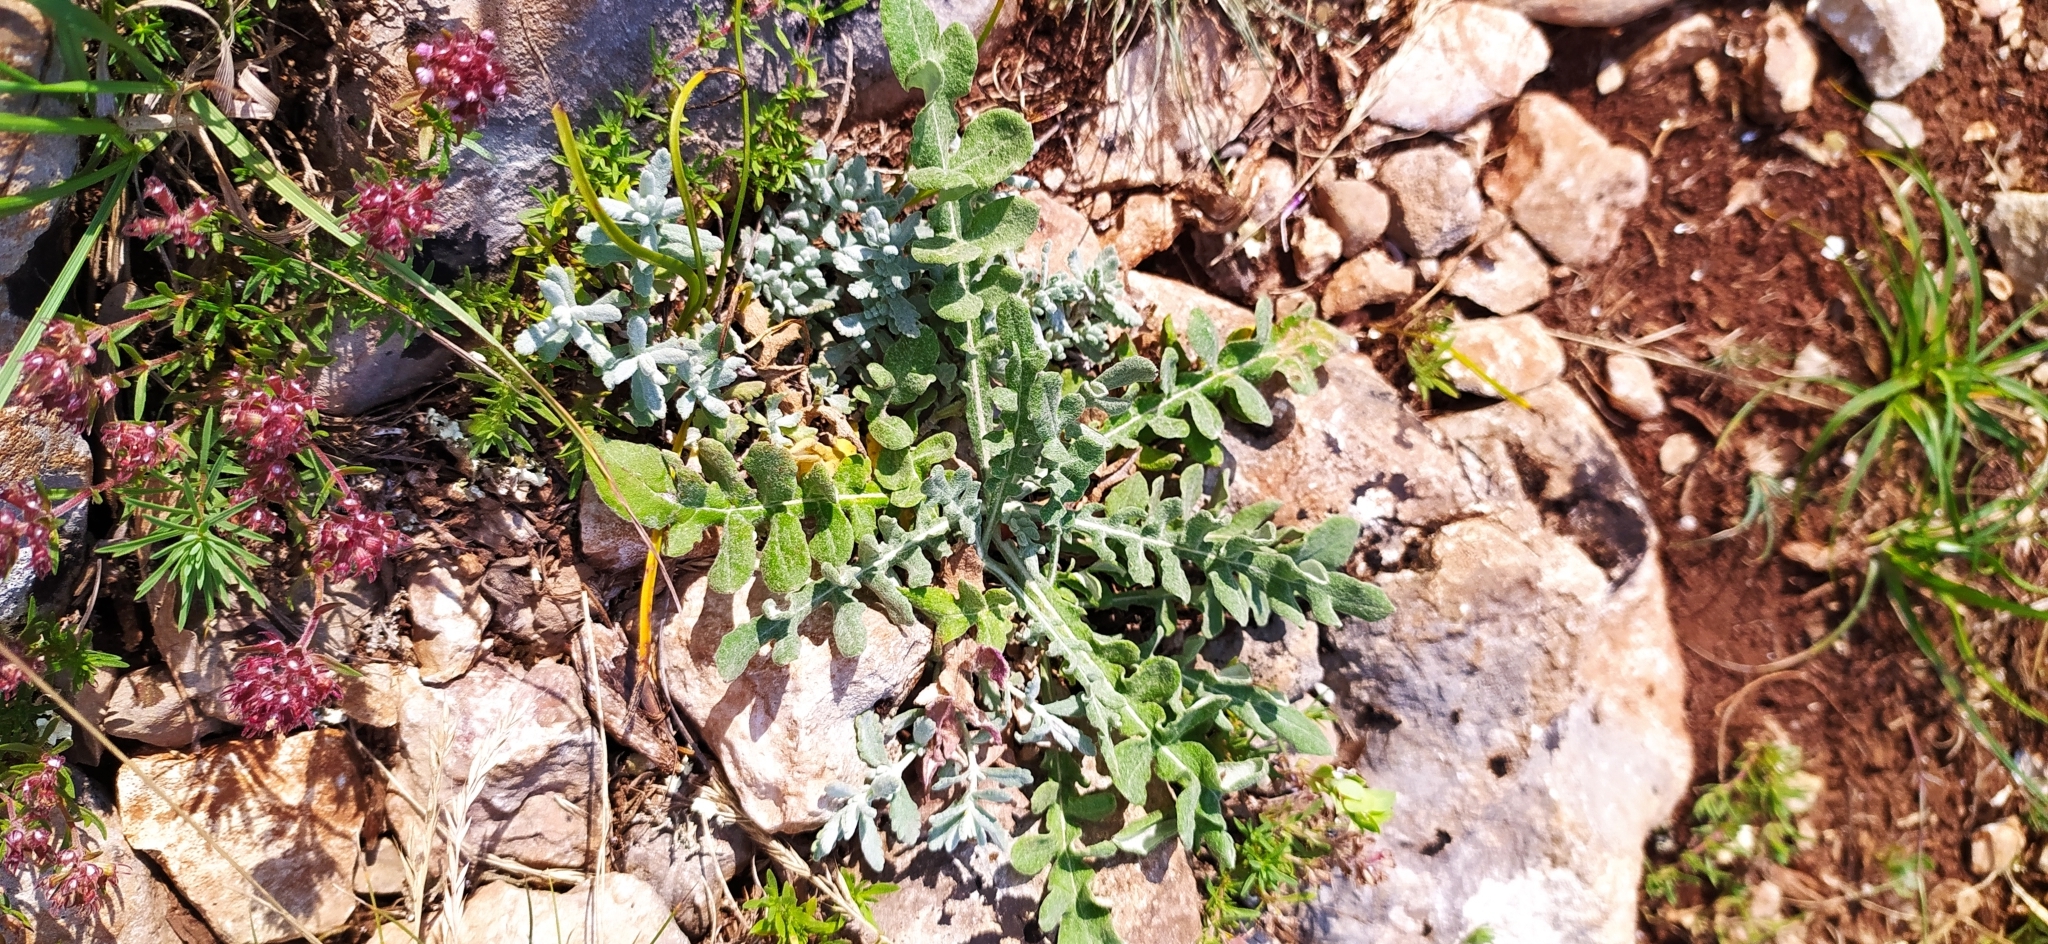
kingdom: Plantae
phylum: Tracheophyta
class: Magnoliopsida
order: Asterales
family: Asteraceae
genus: Jurinea
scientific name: Jurinea roegneri
